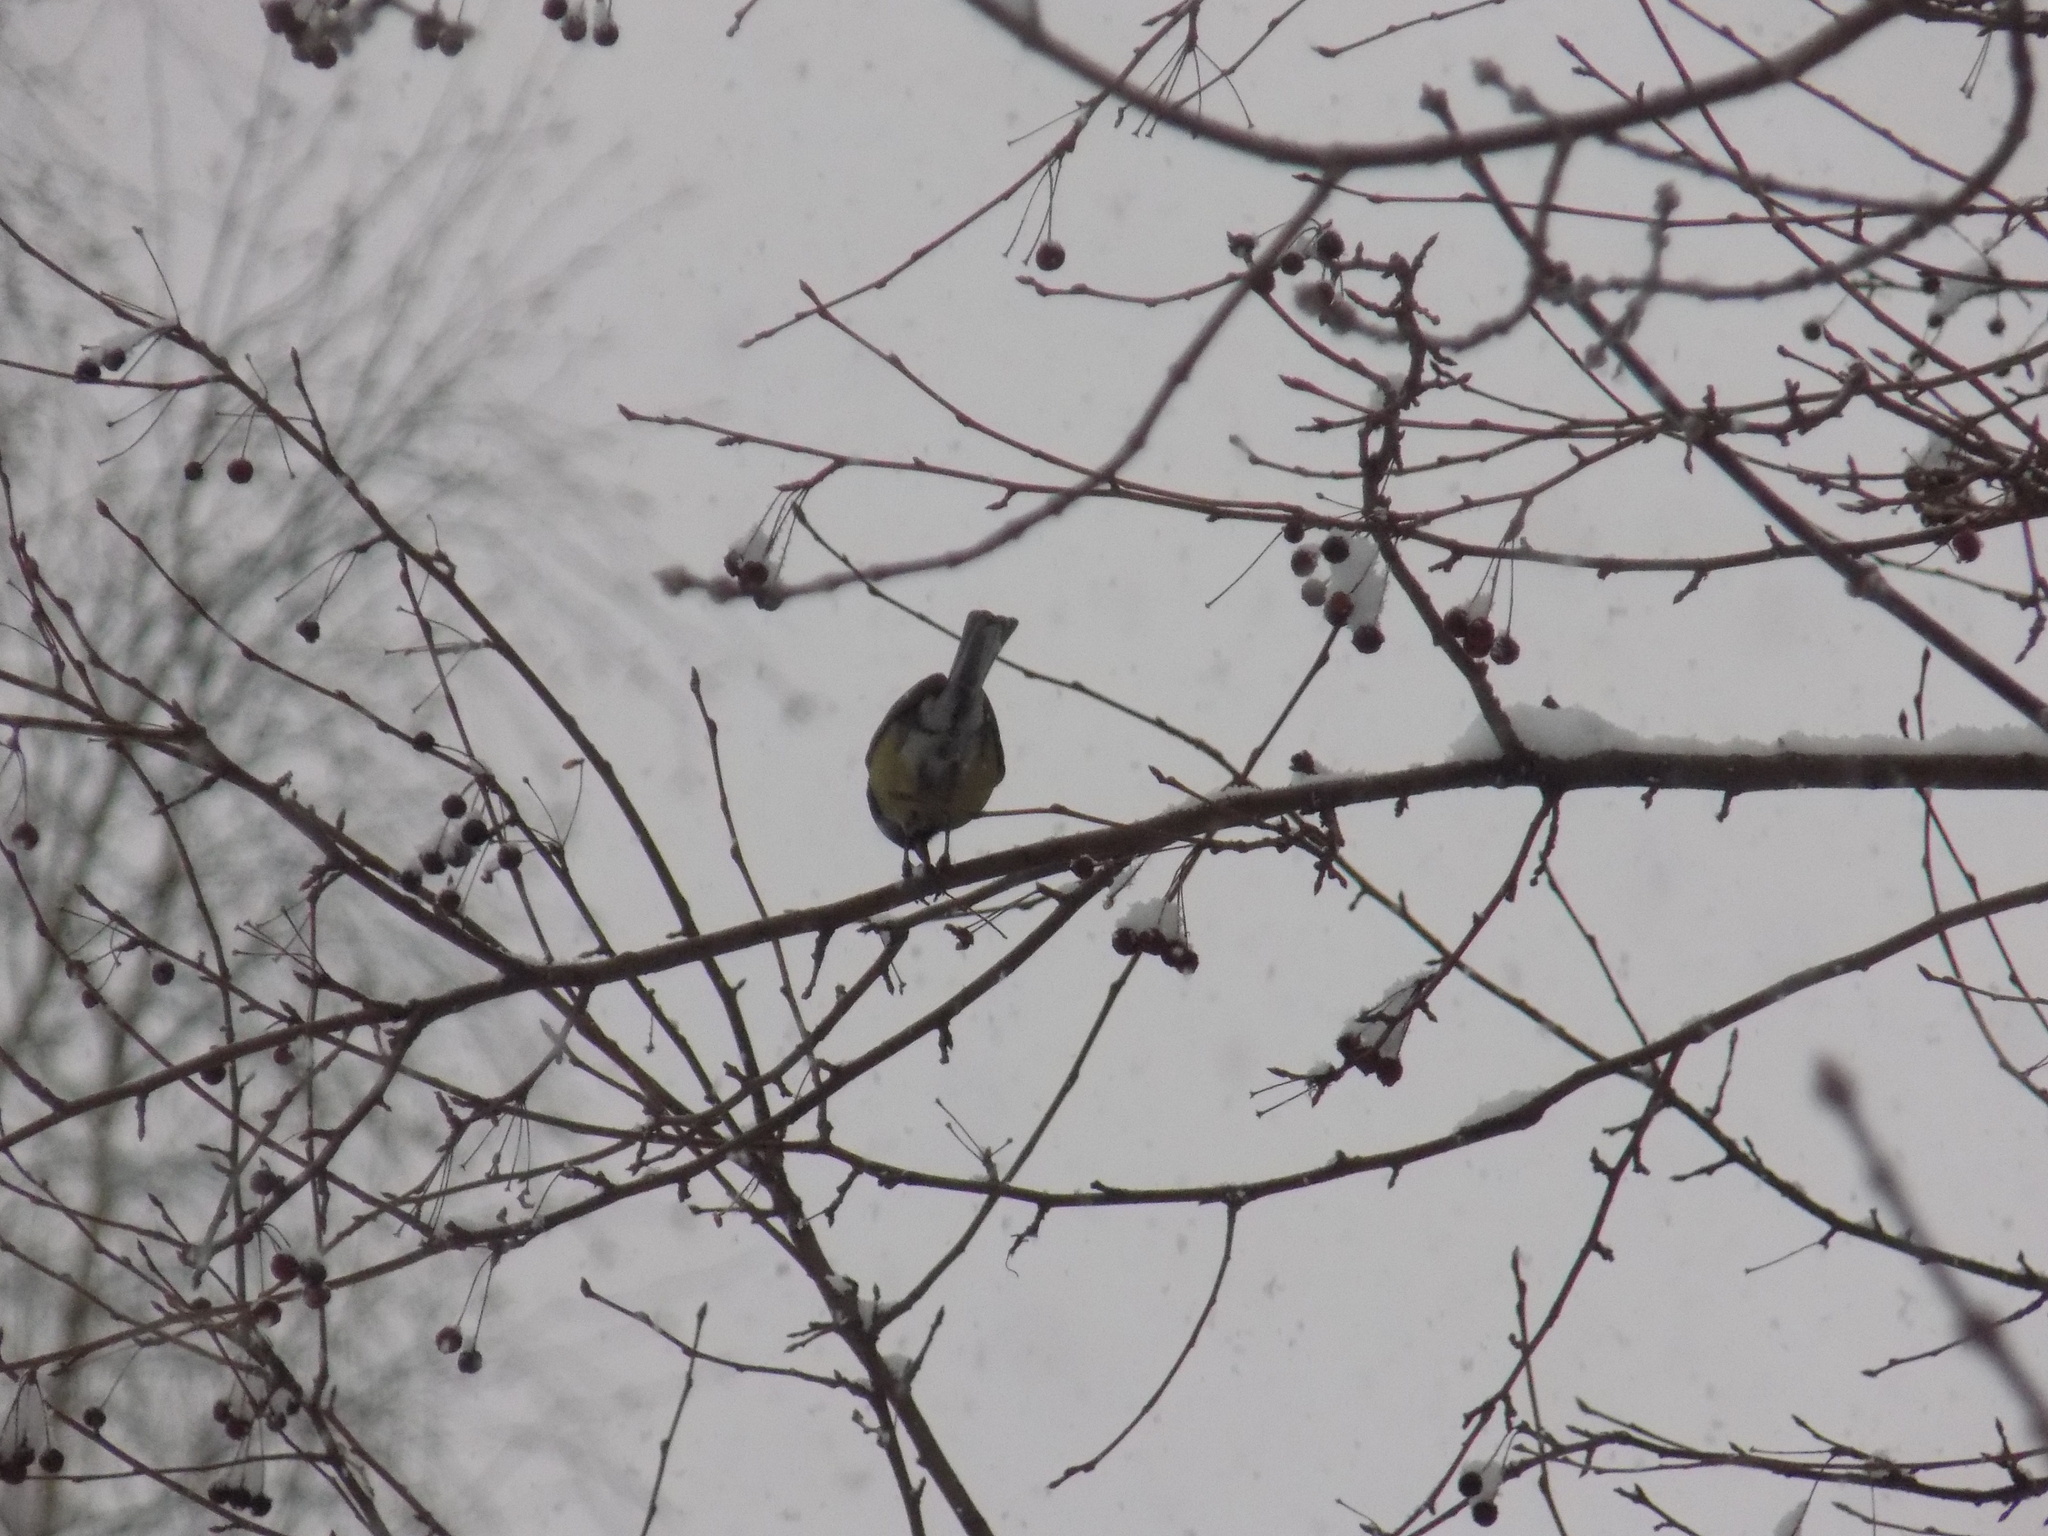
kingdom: Animalia
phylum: Chordata
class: Aves
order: Passeriformes
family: Paridae
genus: Parus
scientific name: Parus major
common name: Great tit
